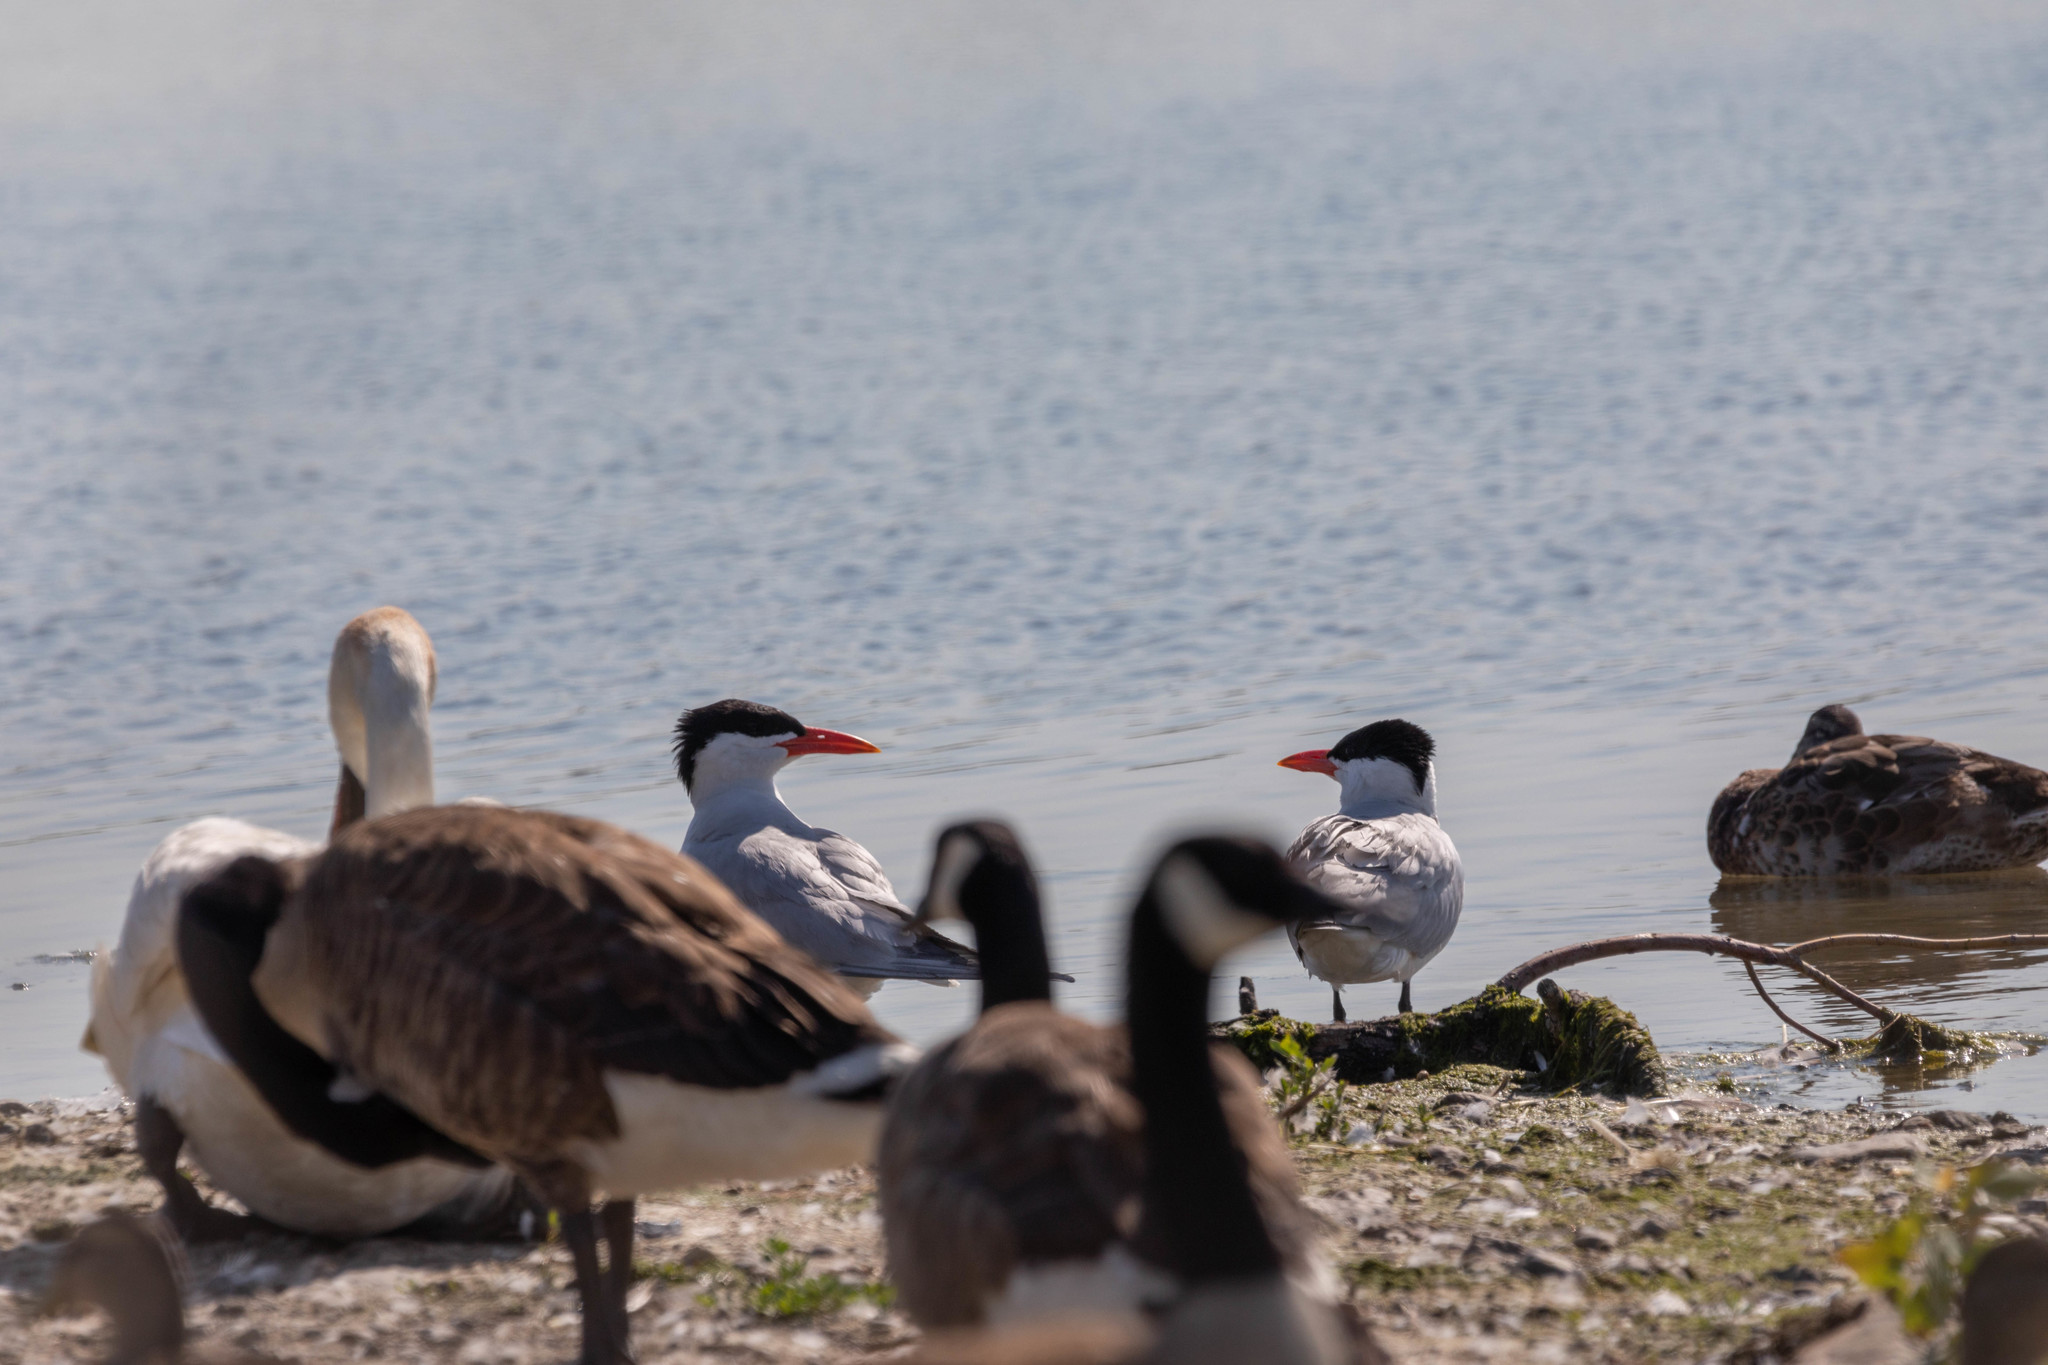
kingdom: Animalia
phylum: Chordata
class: Aves
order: Charadriiformes
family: Laridae
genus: Hydroprogne
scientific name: Hydroprogne caspia
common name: Caspian tern
